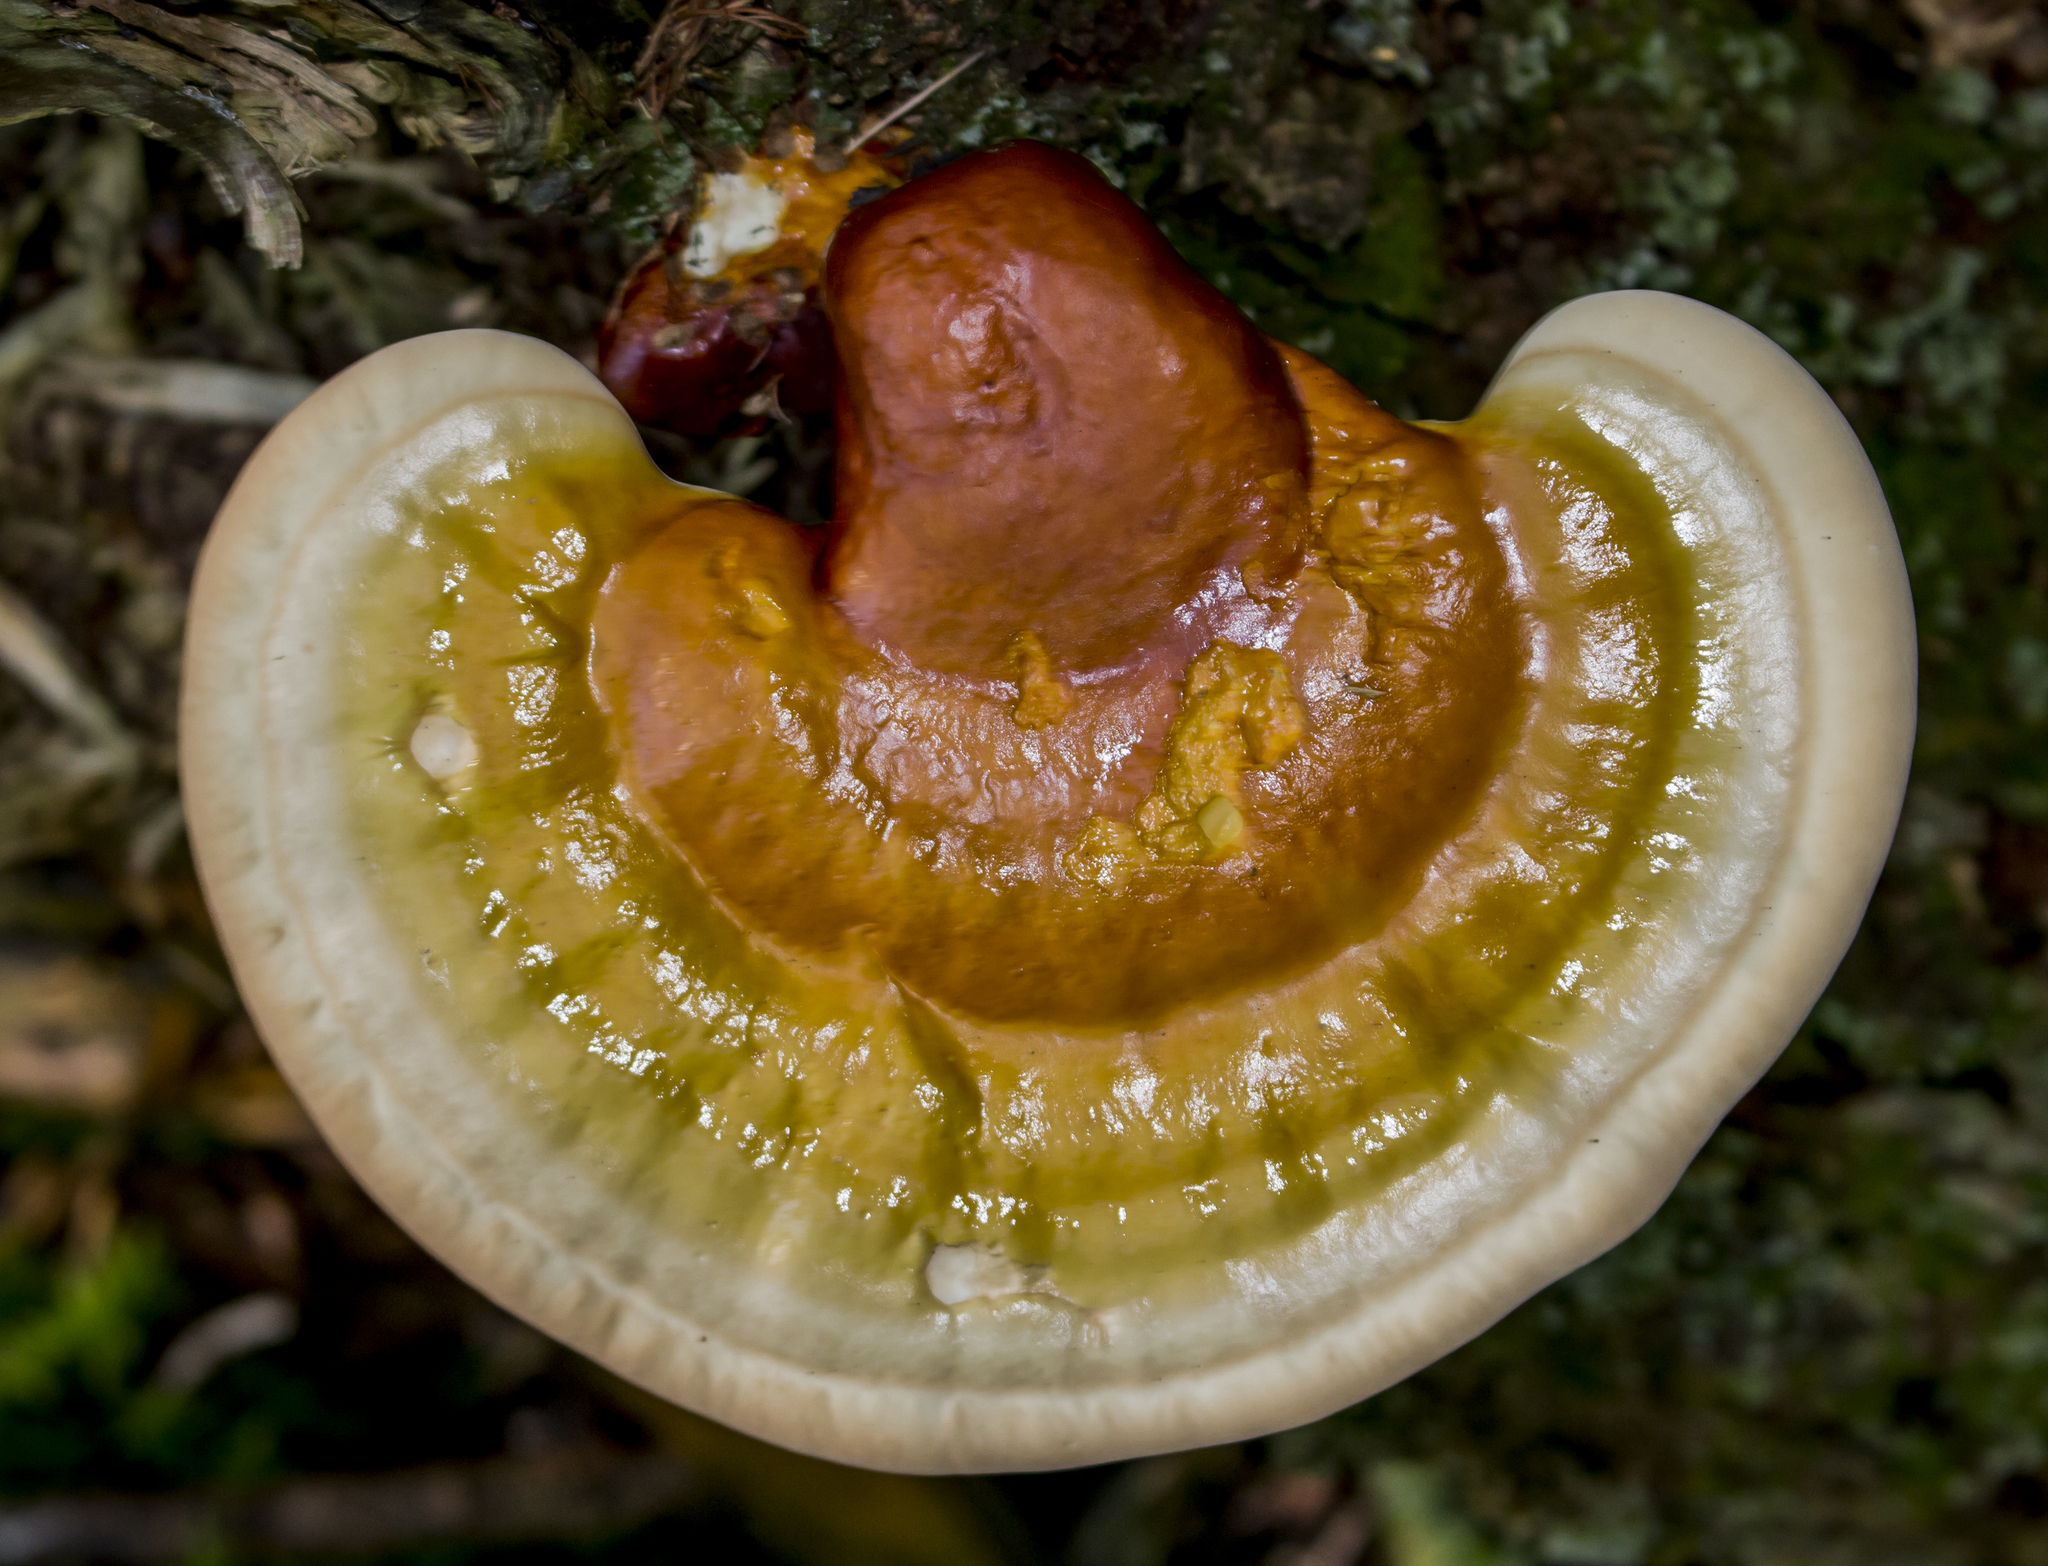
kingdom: Fungi
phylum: Basidiomycota
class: Agaricomycetes
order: Polyporales
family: Polyporaceae
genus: Ganoderma
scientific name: Ganoderma tsugae
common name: Hemlock varnish shelf
